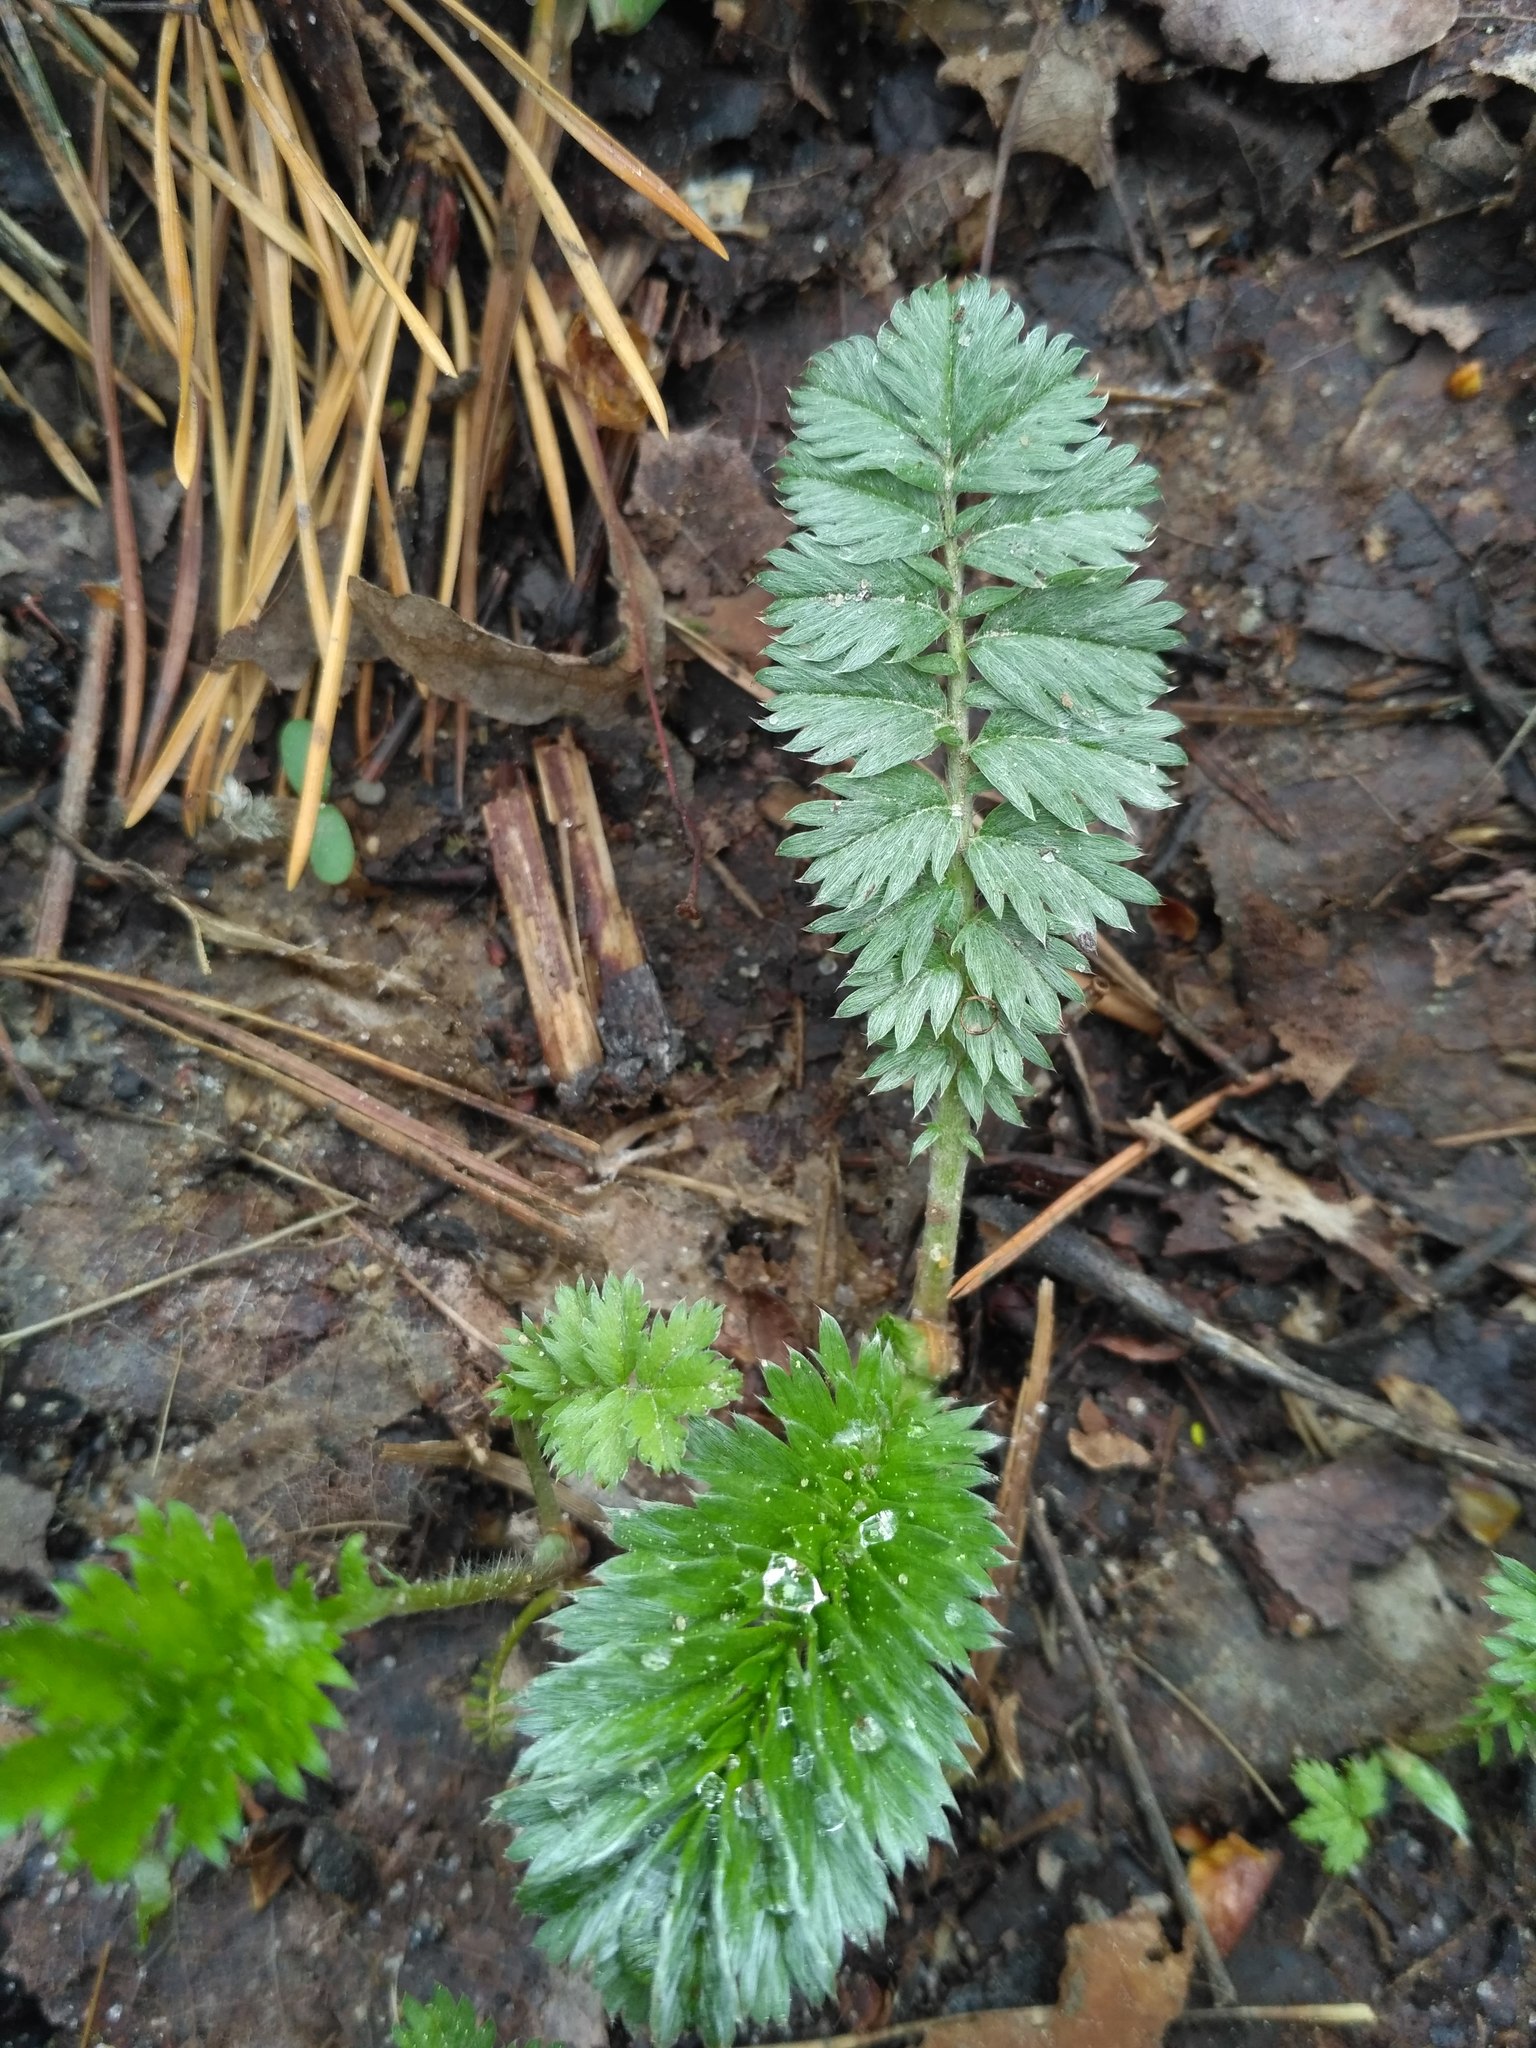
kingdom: Plantae
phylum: Tracheophyta
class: Magnoliopsida
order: Rosales
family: Rosaceae
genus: Argentina
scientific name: Argentina anserina
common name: Common silverweed
